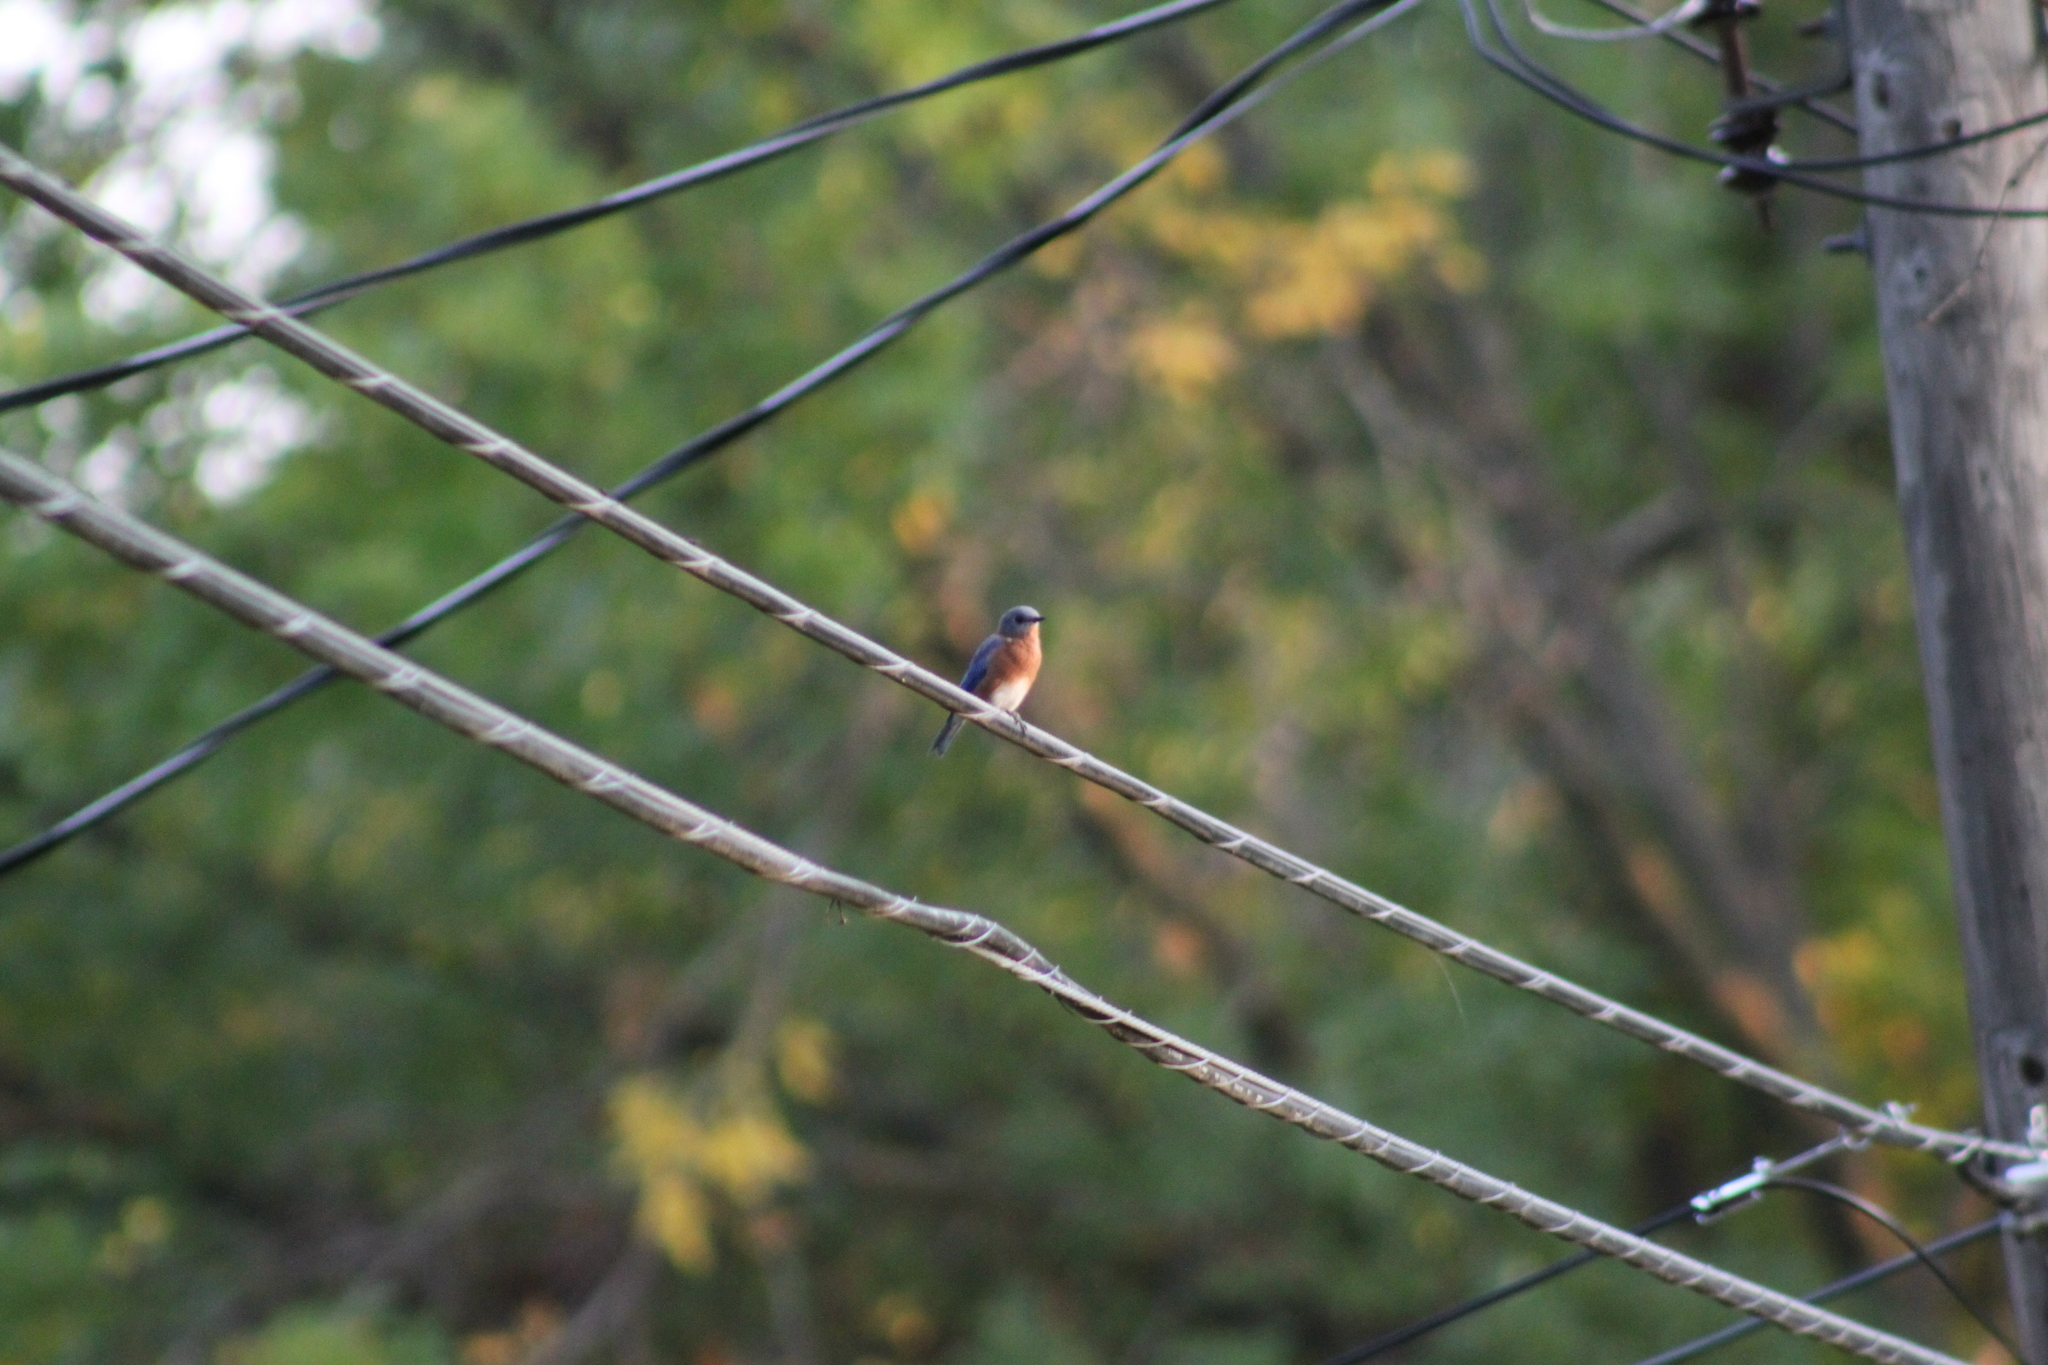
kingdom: Animalia
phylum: Chordata
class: Aves
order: Passeriformes
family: Turdidae
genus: Sialia
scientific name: Sialia sialis
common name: Eastern bluebird
